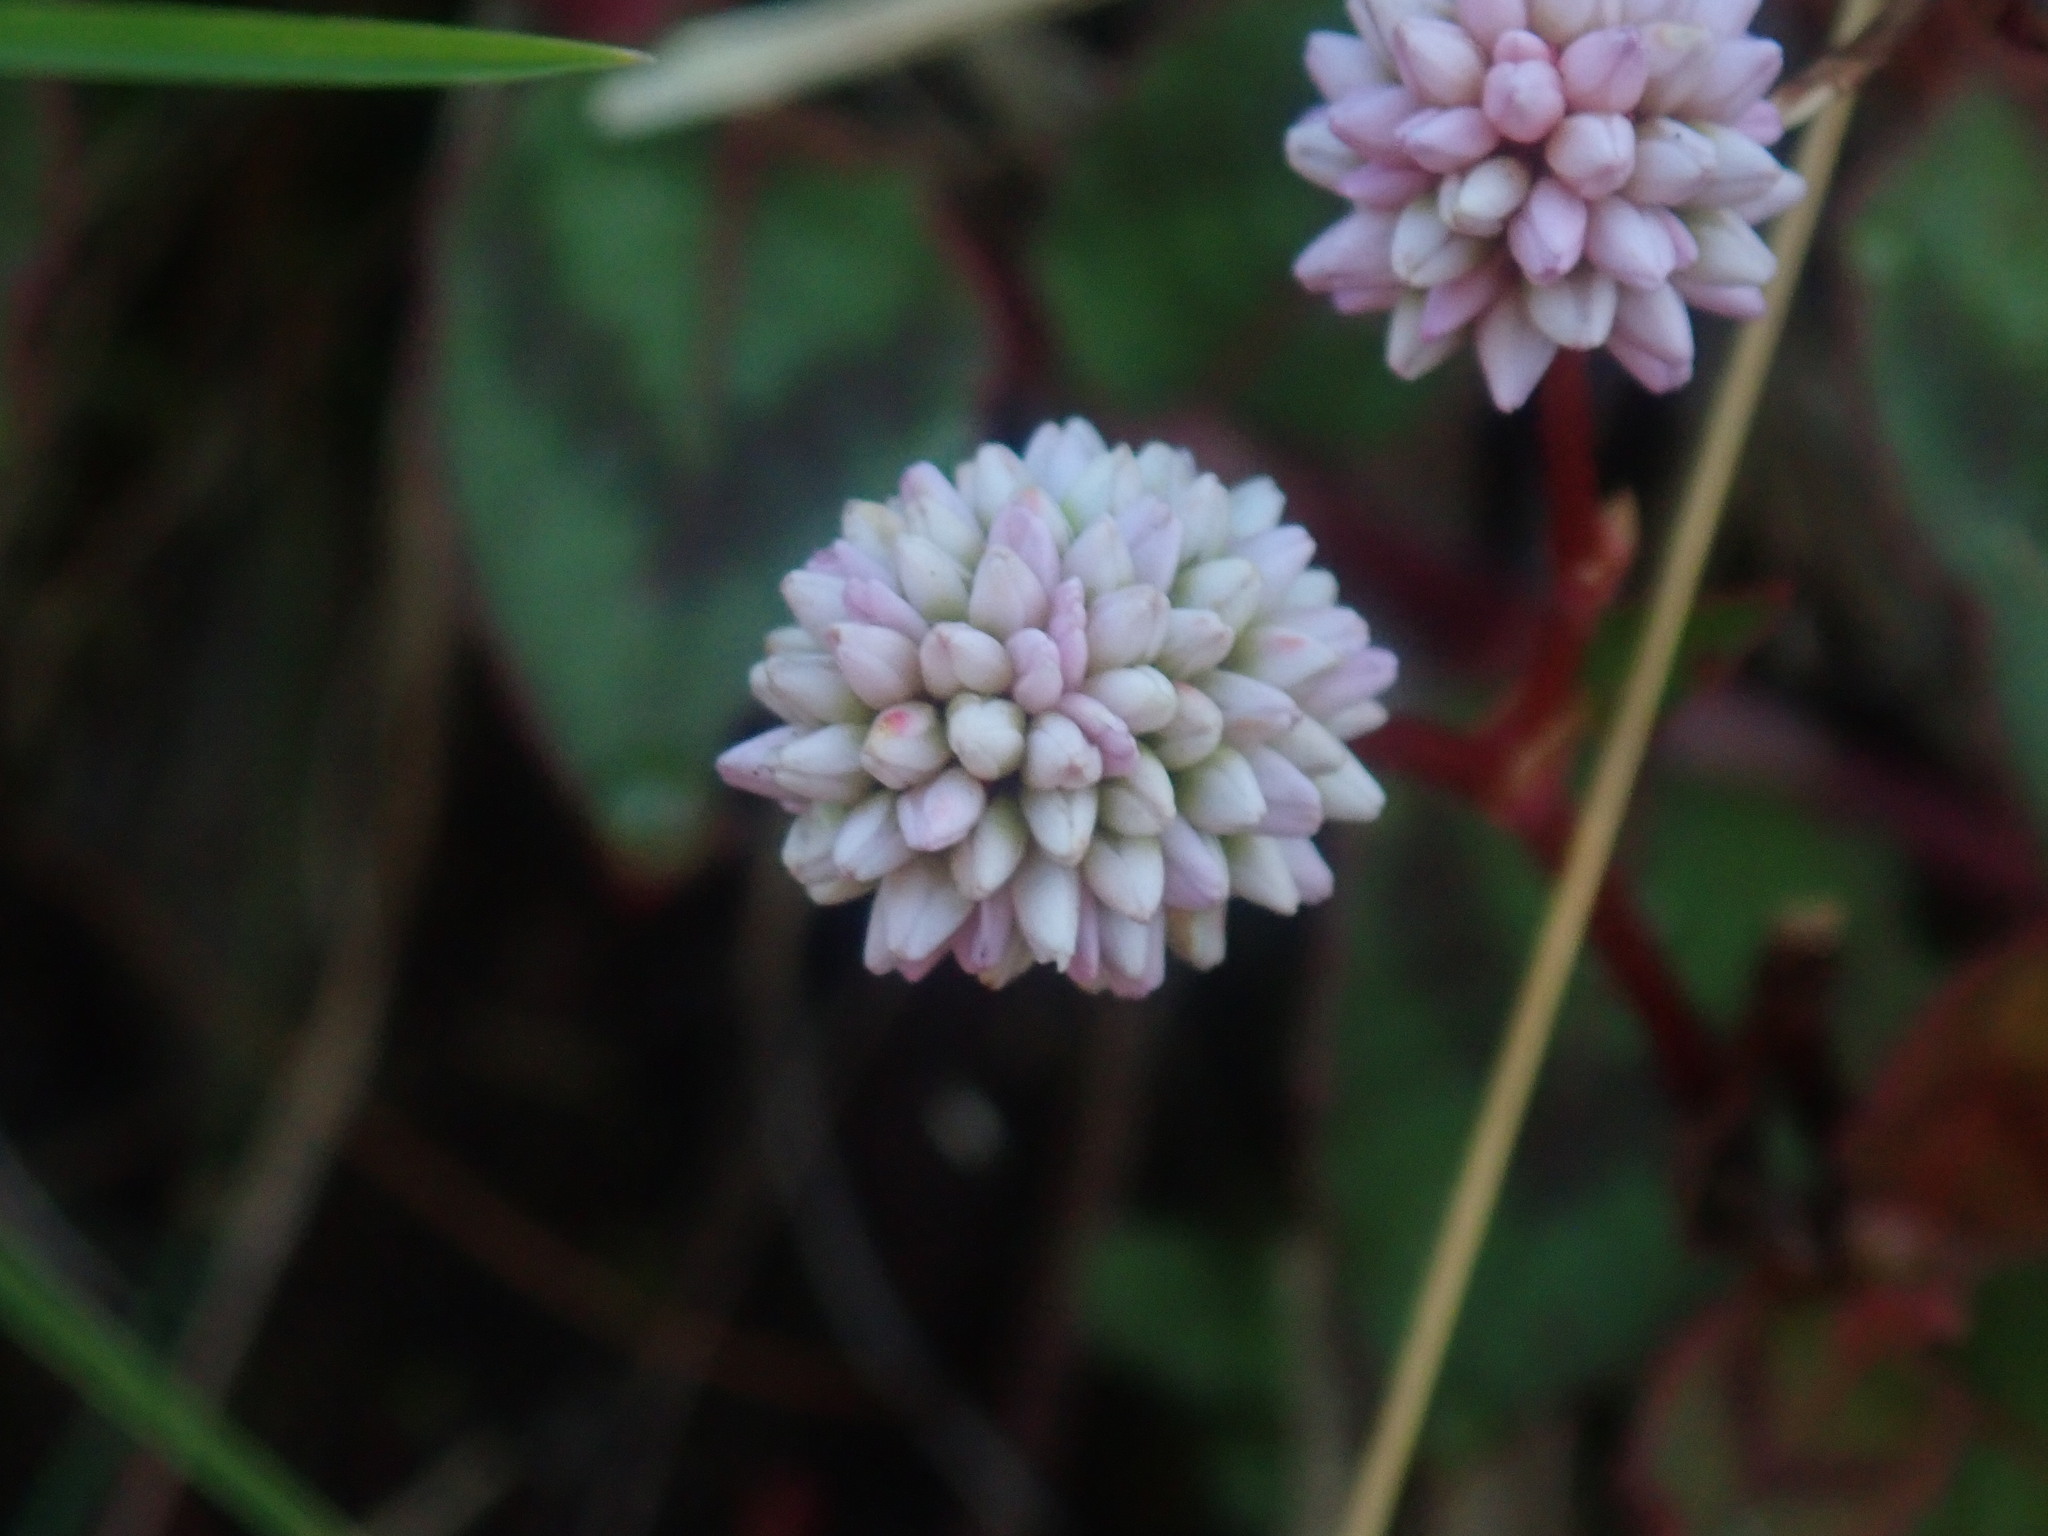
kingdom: Plantae
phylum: Tracheophyta
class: Magnoliopsida
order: Caryophyllales
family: Polygonaceae
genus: Persicaria
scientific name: Persicaria capitata
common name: Pinkhead smartweed
